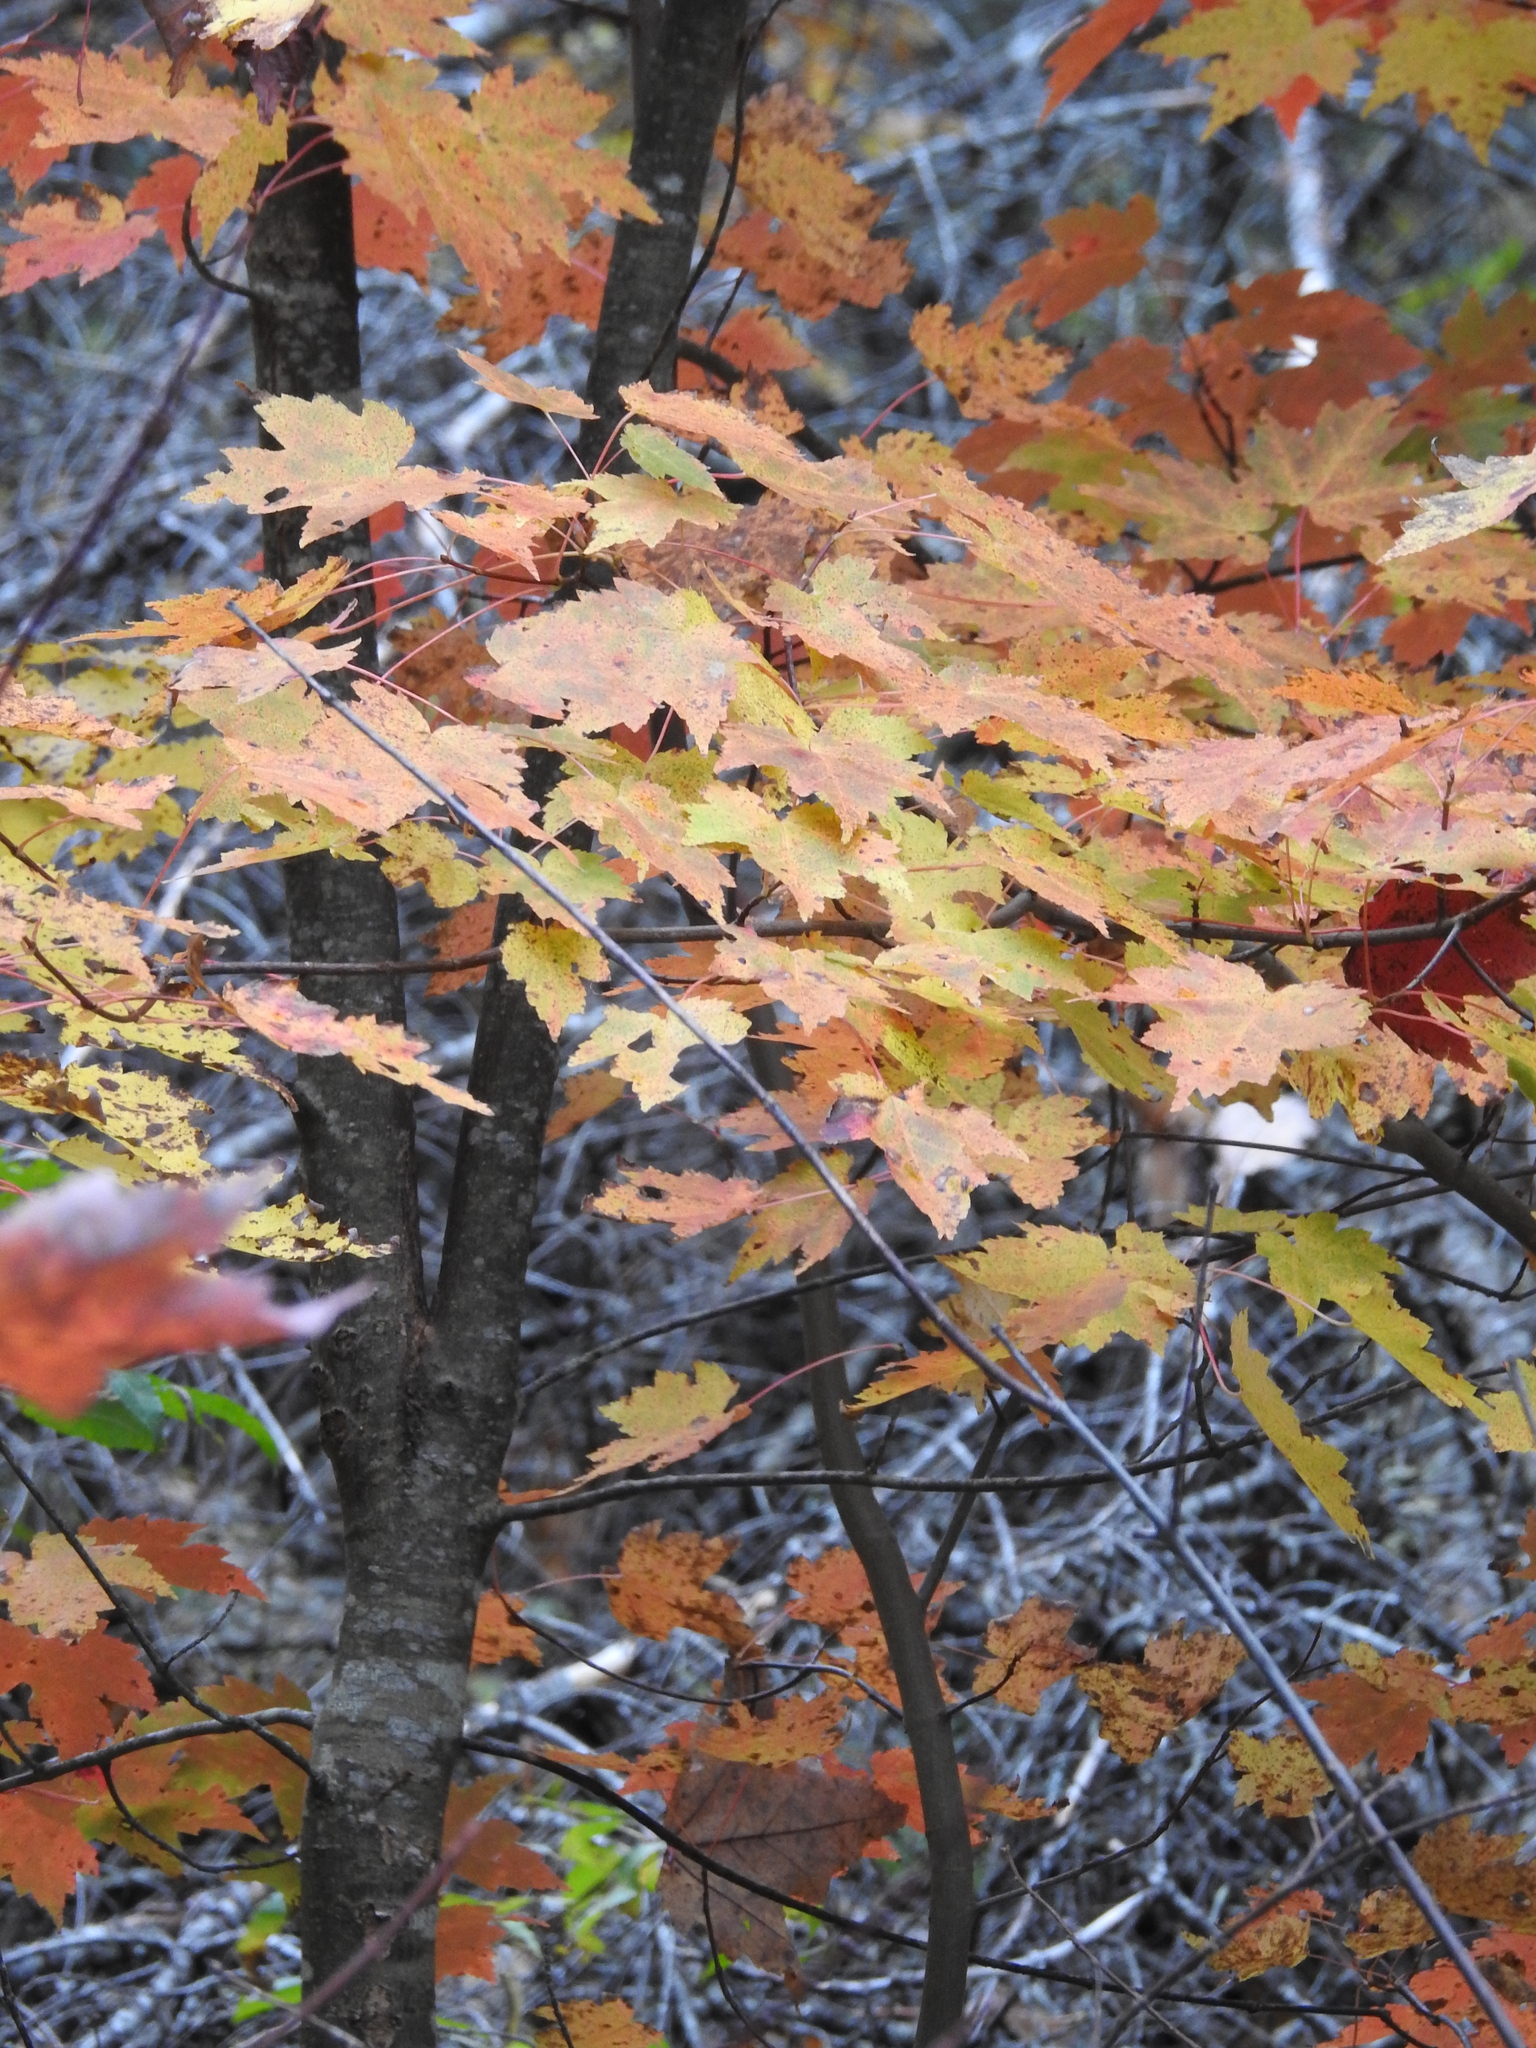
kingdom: Plantae
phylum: Tracheophyta
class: Magnoliopsida
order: Sapindales
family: Sapindaceae
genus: Acer
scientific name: Acer rubrum
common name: Red maple
